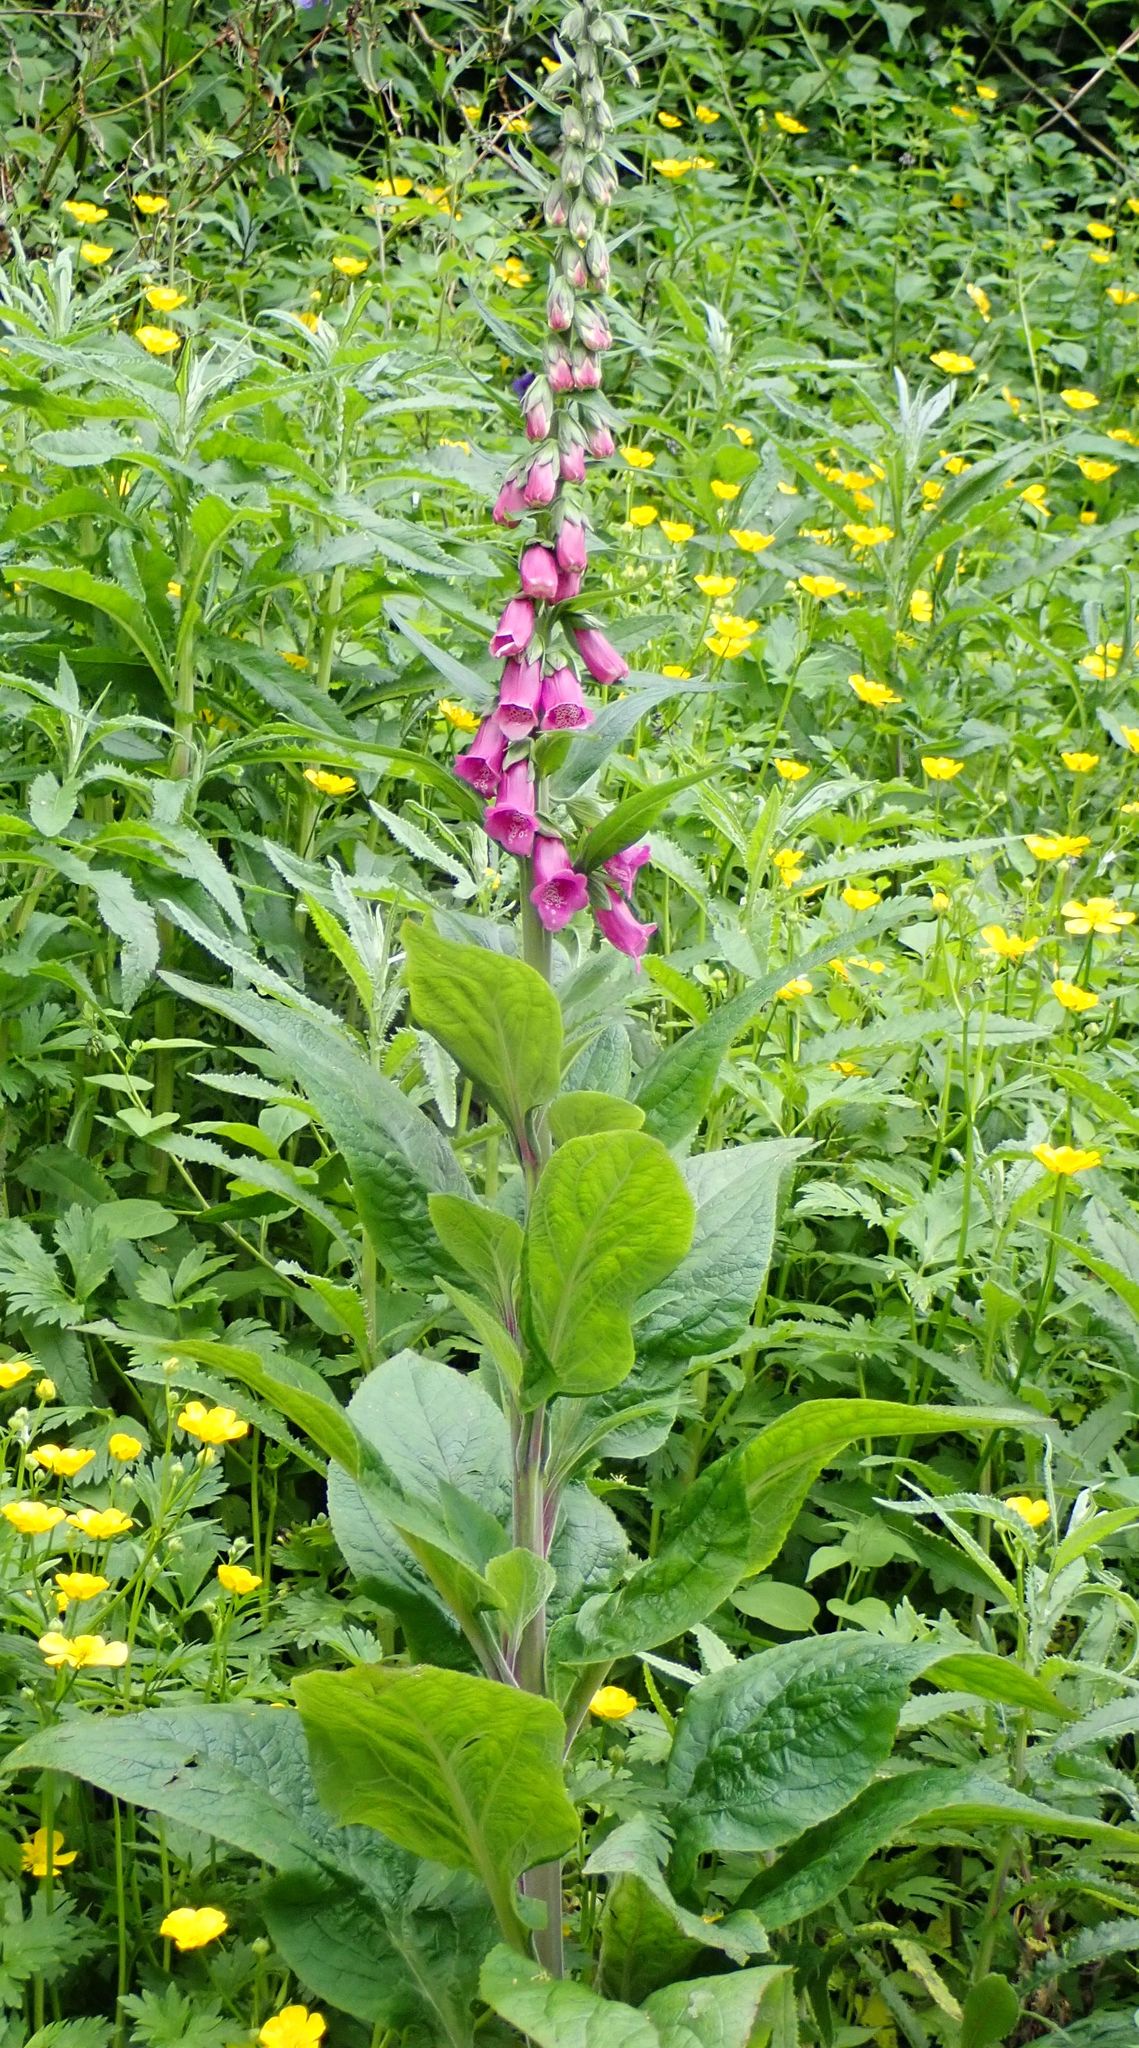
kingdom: Plantae
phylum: Tracheophyta
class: Magnoliopsida
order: Lamiales
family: Plantaginaceae
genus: Digitalis
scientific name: Digitalis purpurea
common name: Foxglove
